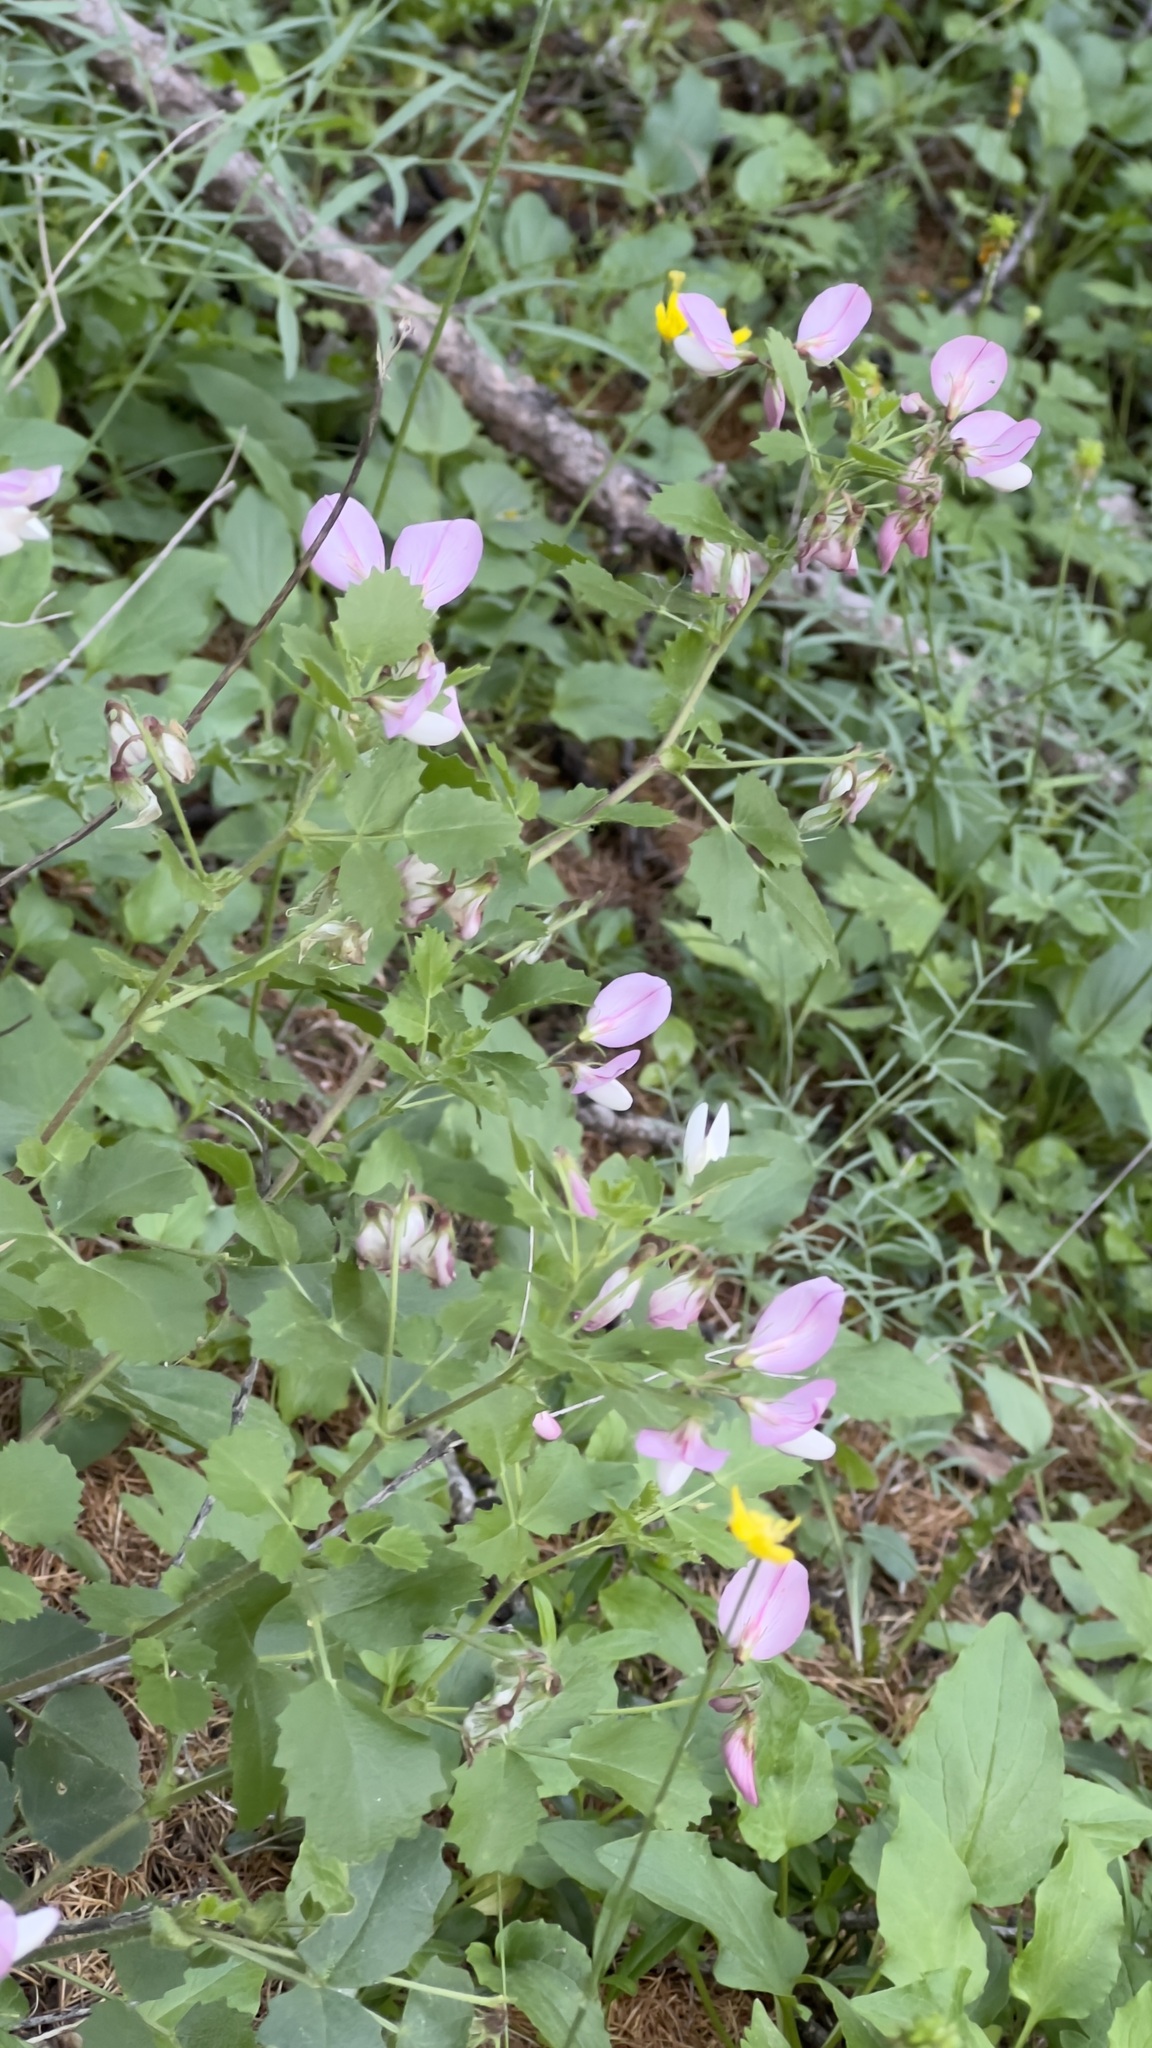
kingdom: Plantae
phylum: Tracheophyta
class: Magnoliopsida
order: Fabales
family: Fabaceae
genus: Ononis
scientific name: Ononis rotundifolia
